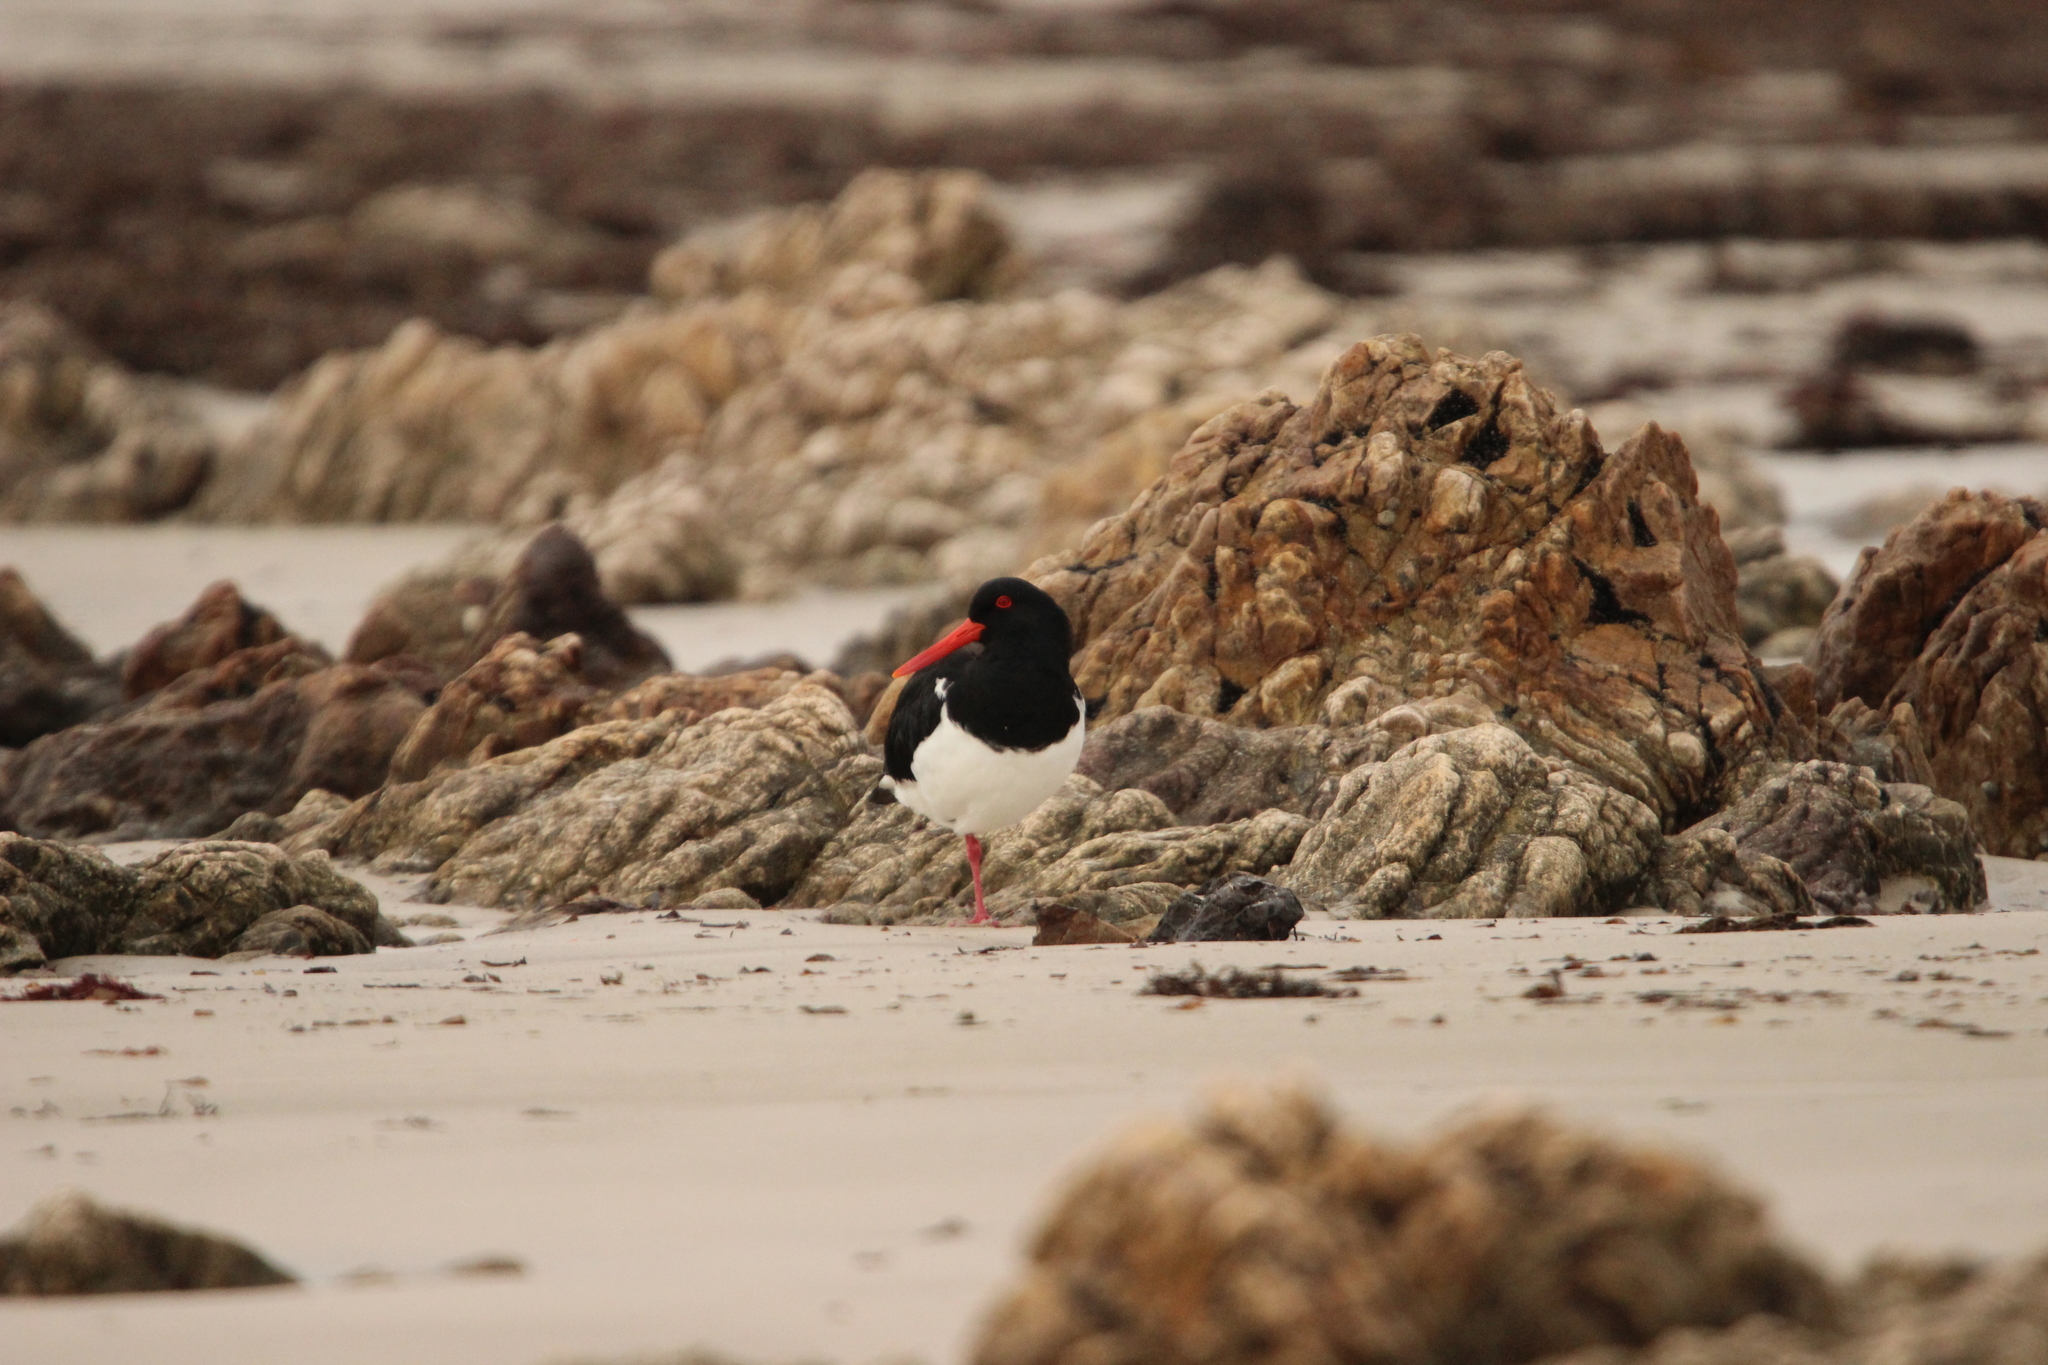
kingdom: Animalia
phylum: Chordata
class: Aves
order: Charadriiformes
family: Haematopodidae
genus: Haematopus
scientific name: Haematopus longirostris
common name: Pied oystercatcher
